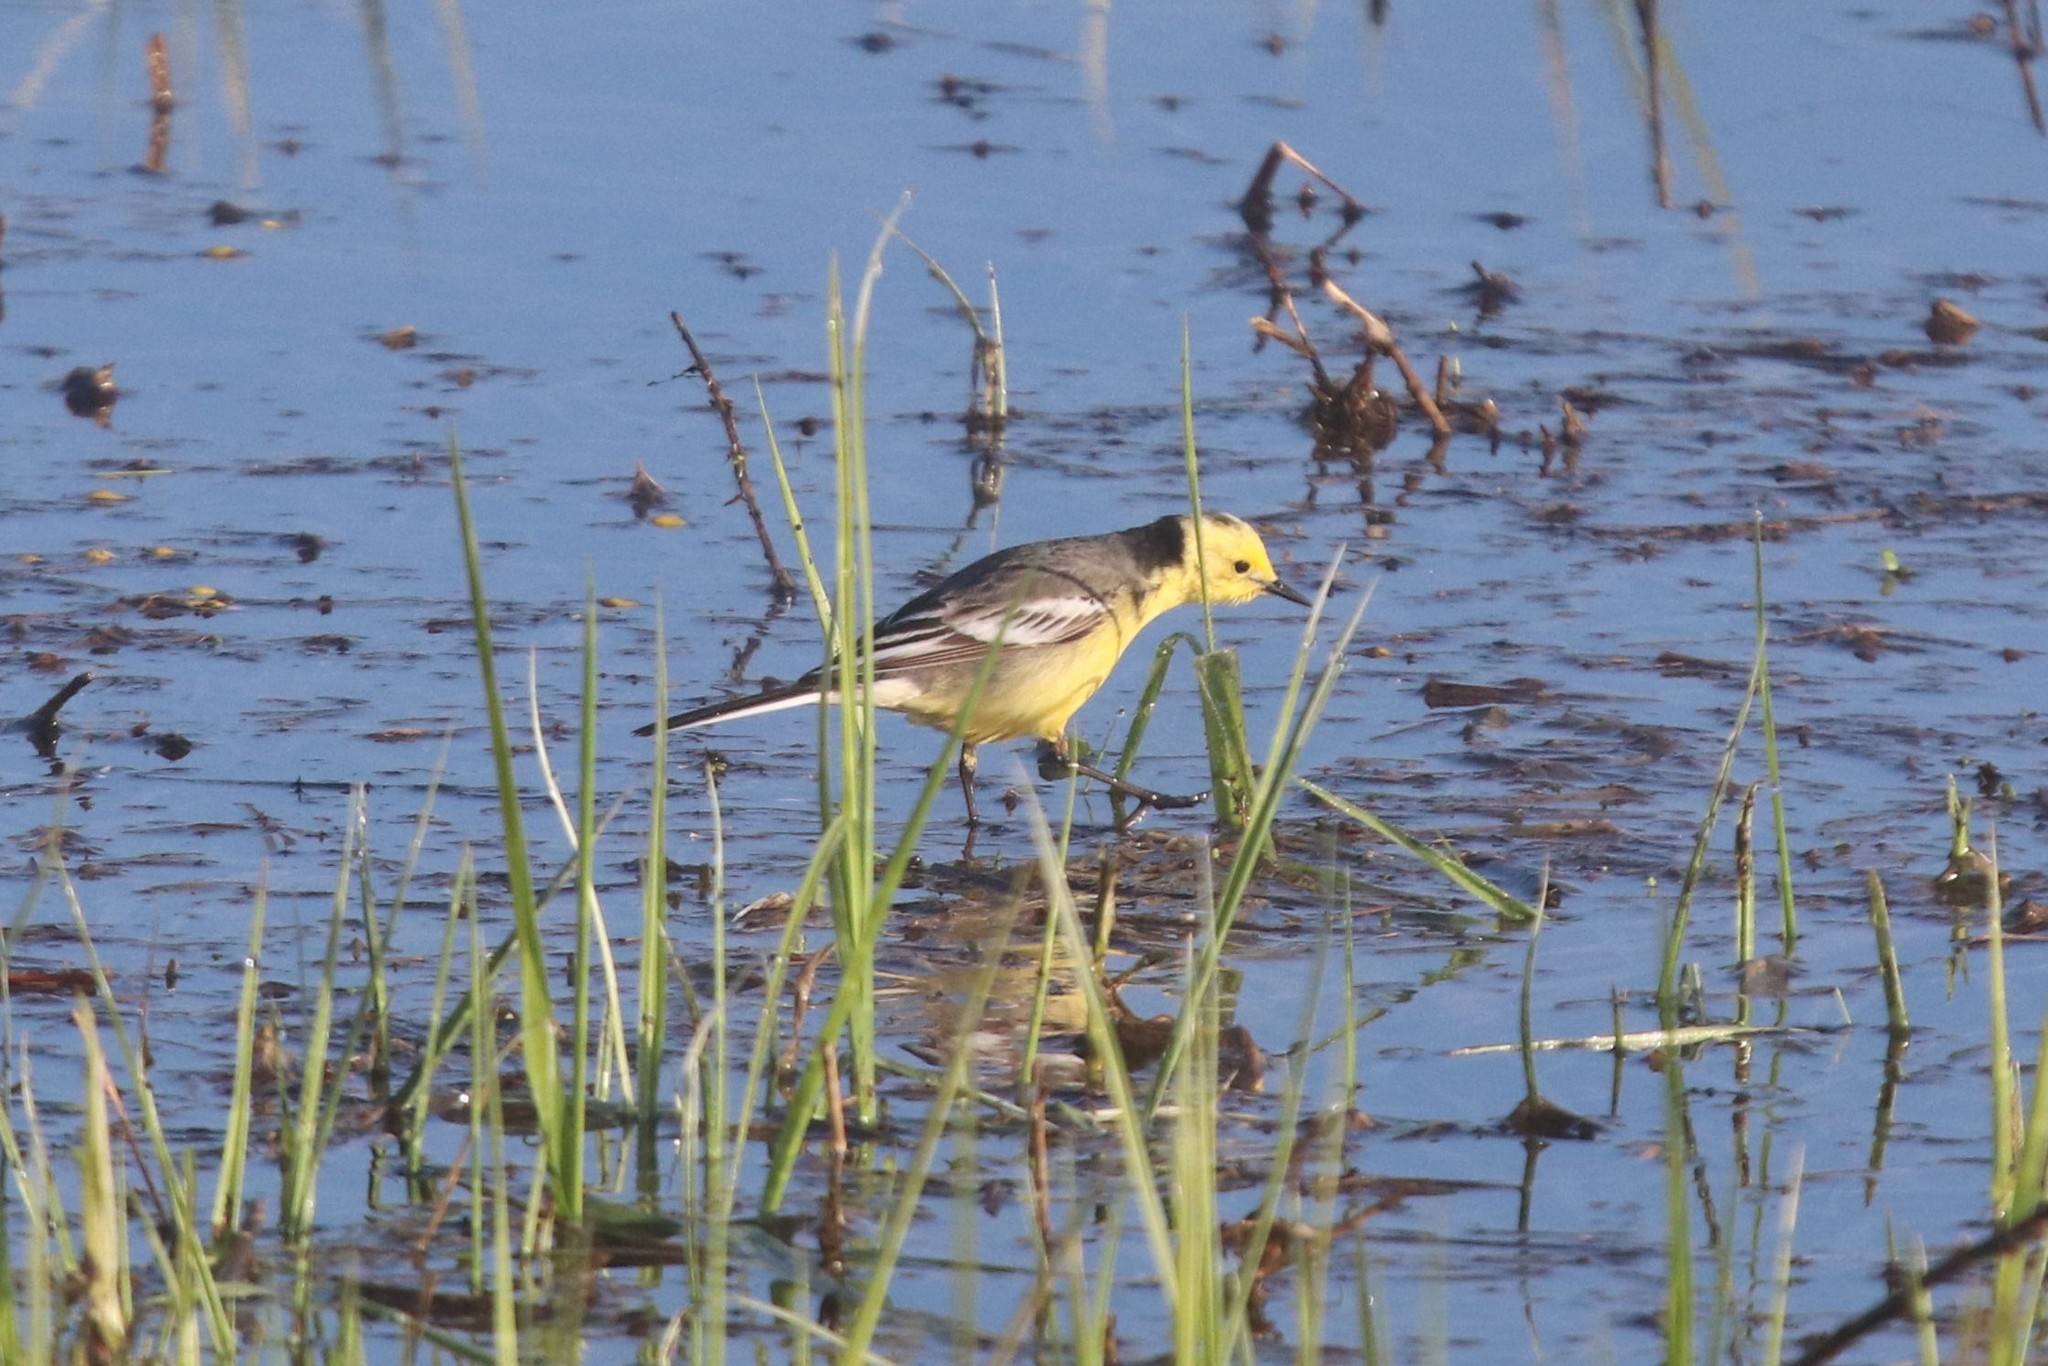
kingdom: Animalia
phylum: Chordata
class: Aves
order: Passeriformes
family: Motacillidae
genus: Motacilla
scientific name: Motacilla citreola
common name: Citrine wagtail
